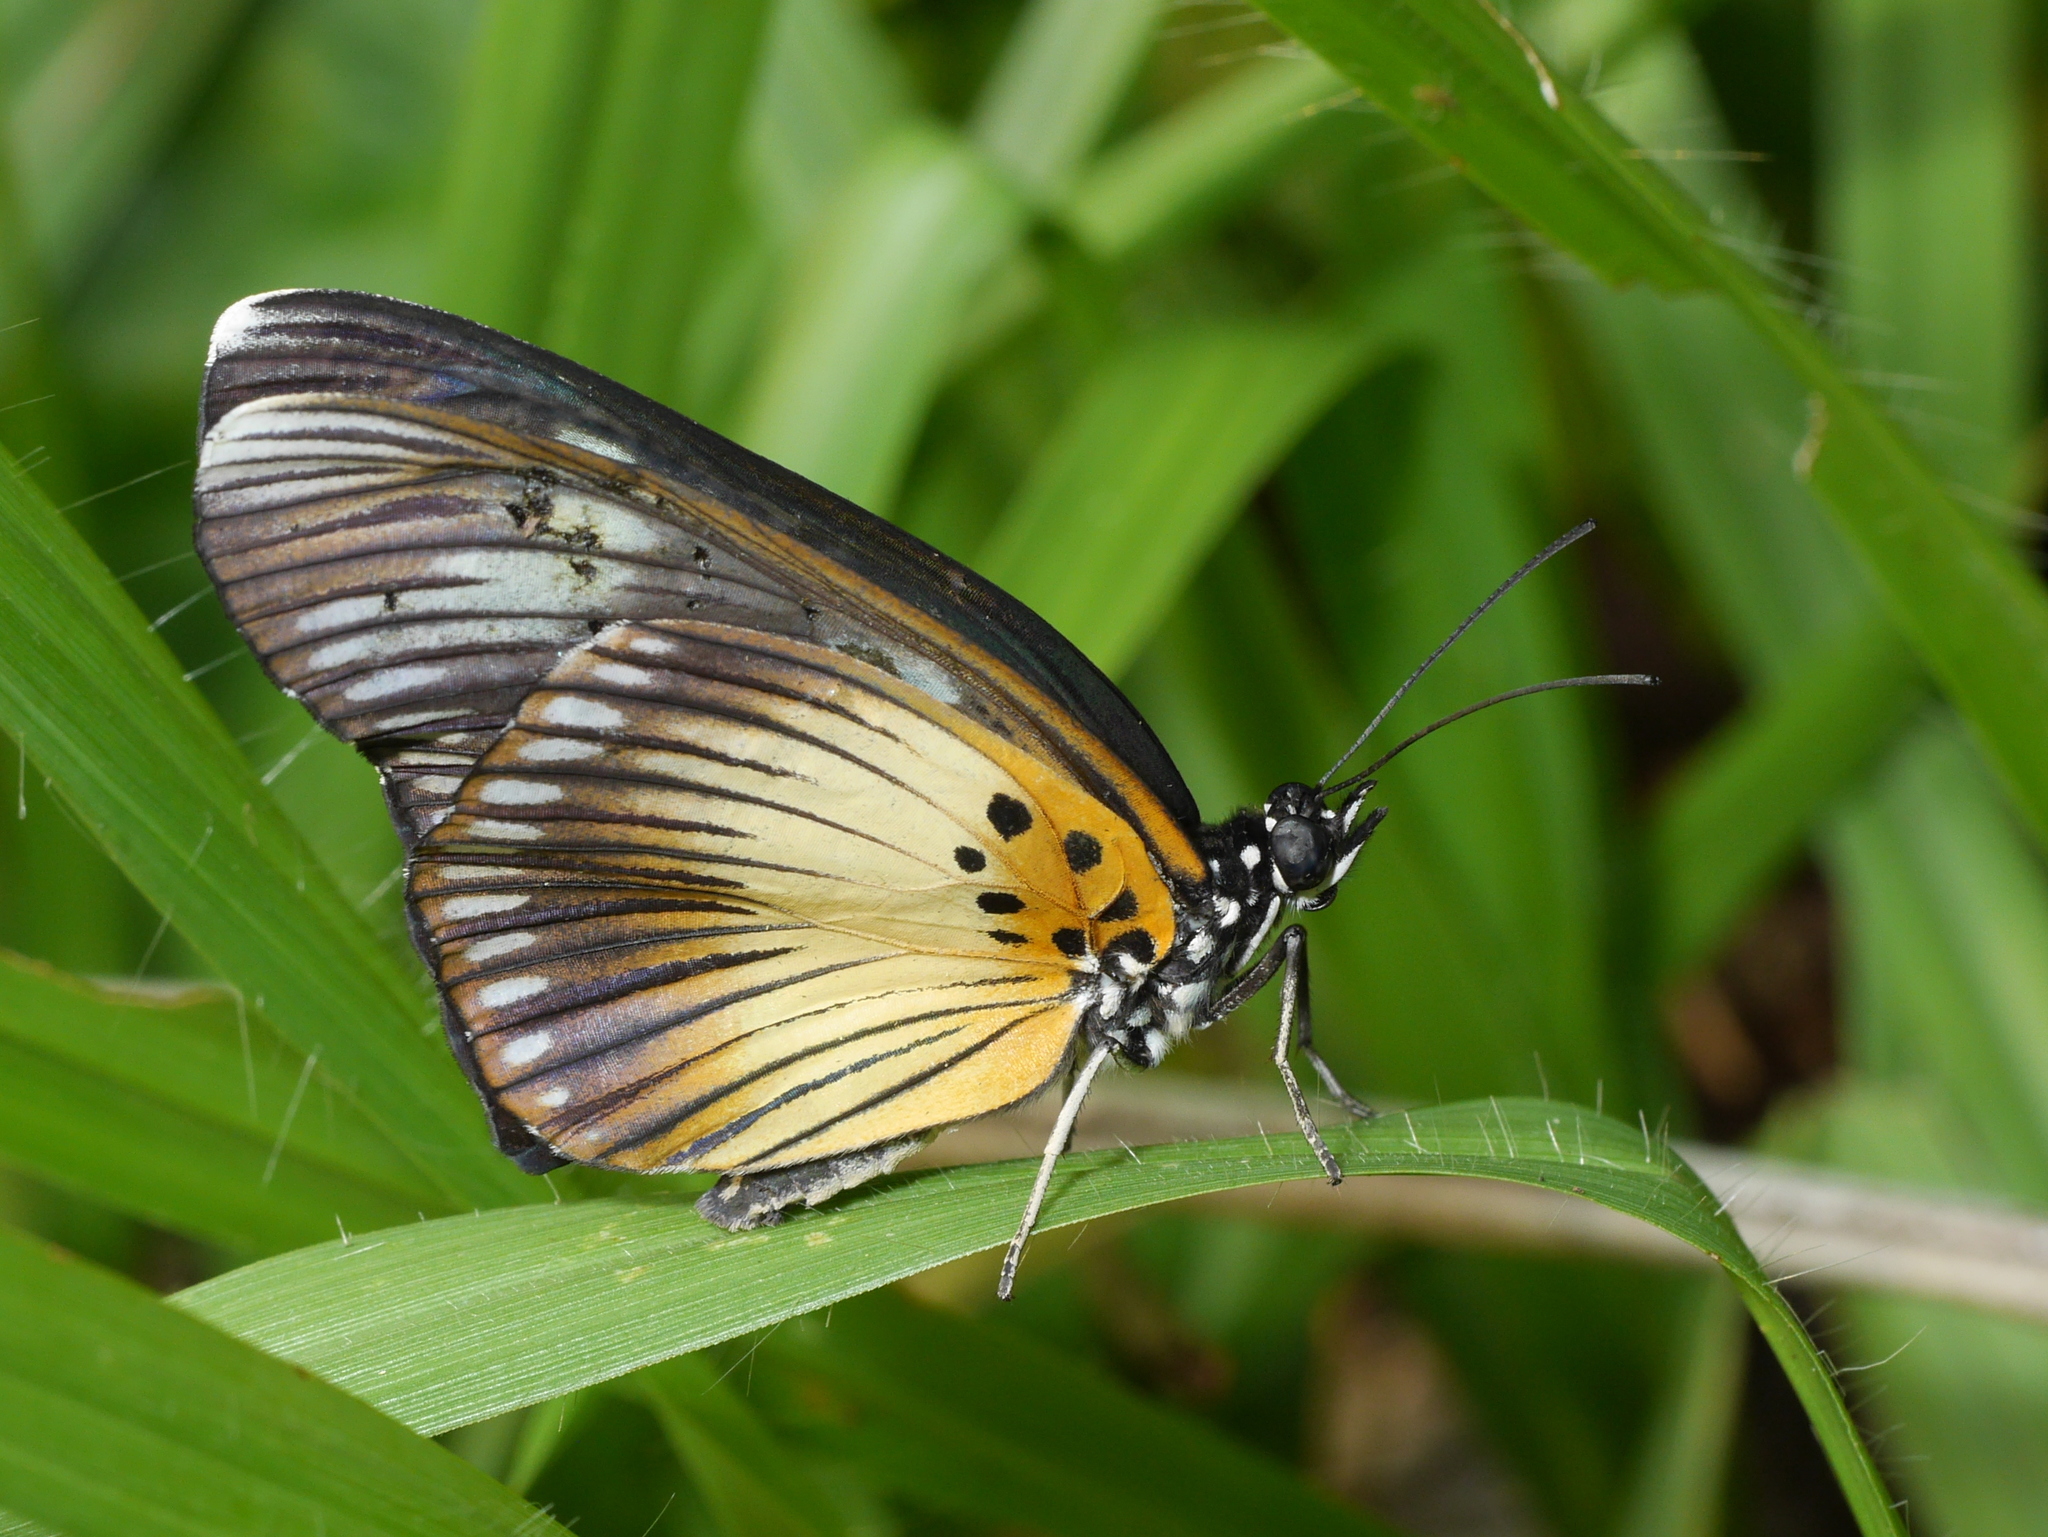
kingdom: Animalia
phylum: Arthropoda
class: Insecta
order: Lepidoptera
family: Nymphalidae
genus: Chloropoea
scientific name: Chloropoea lucretia
